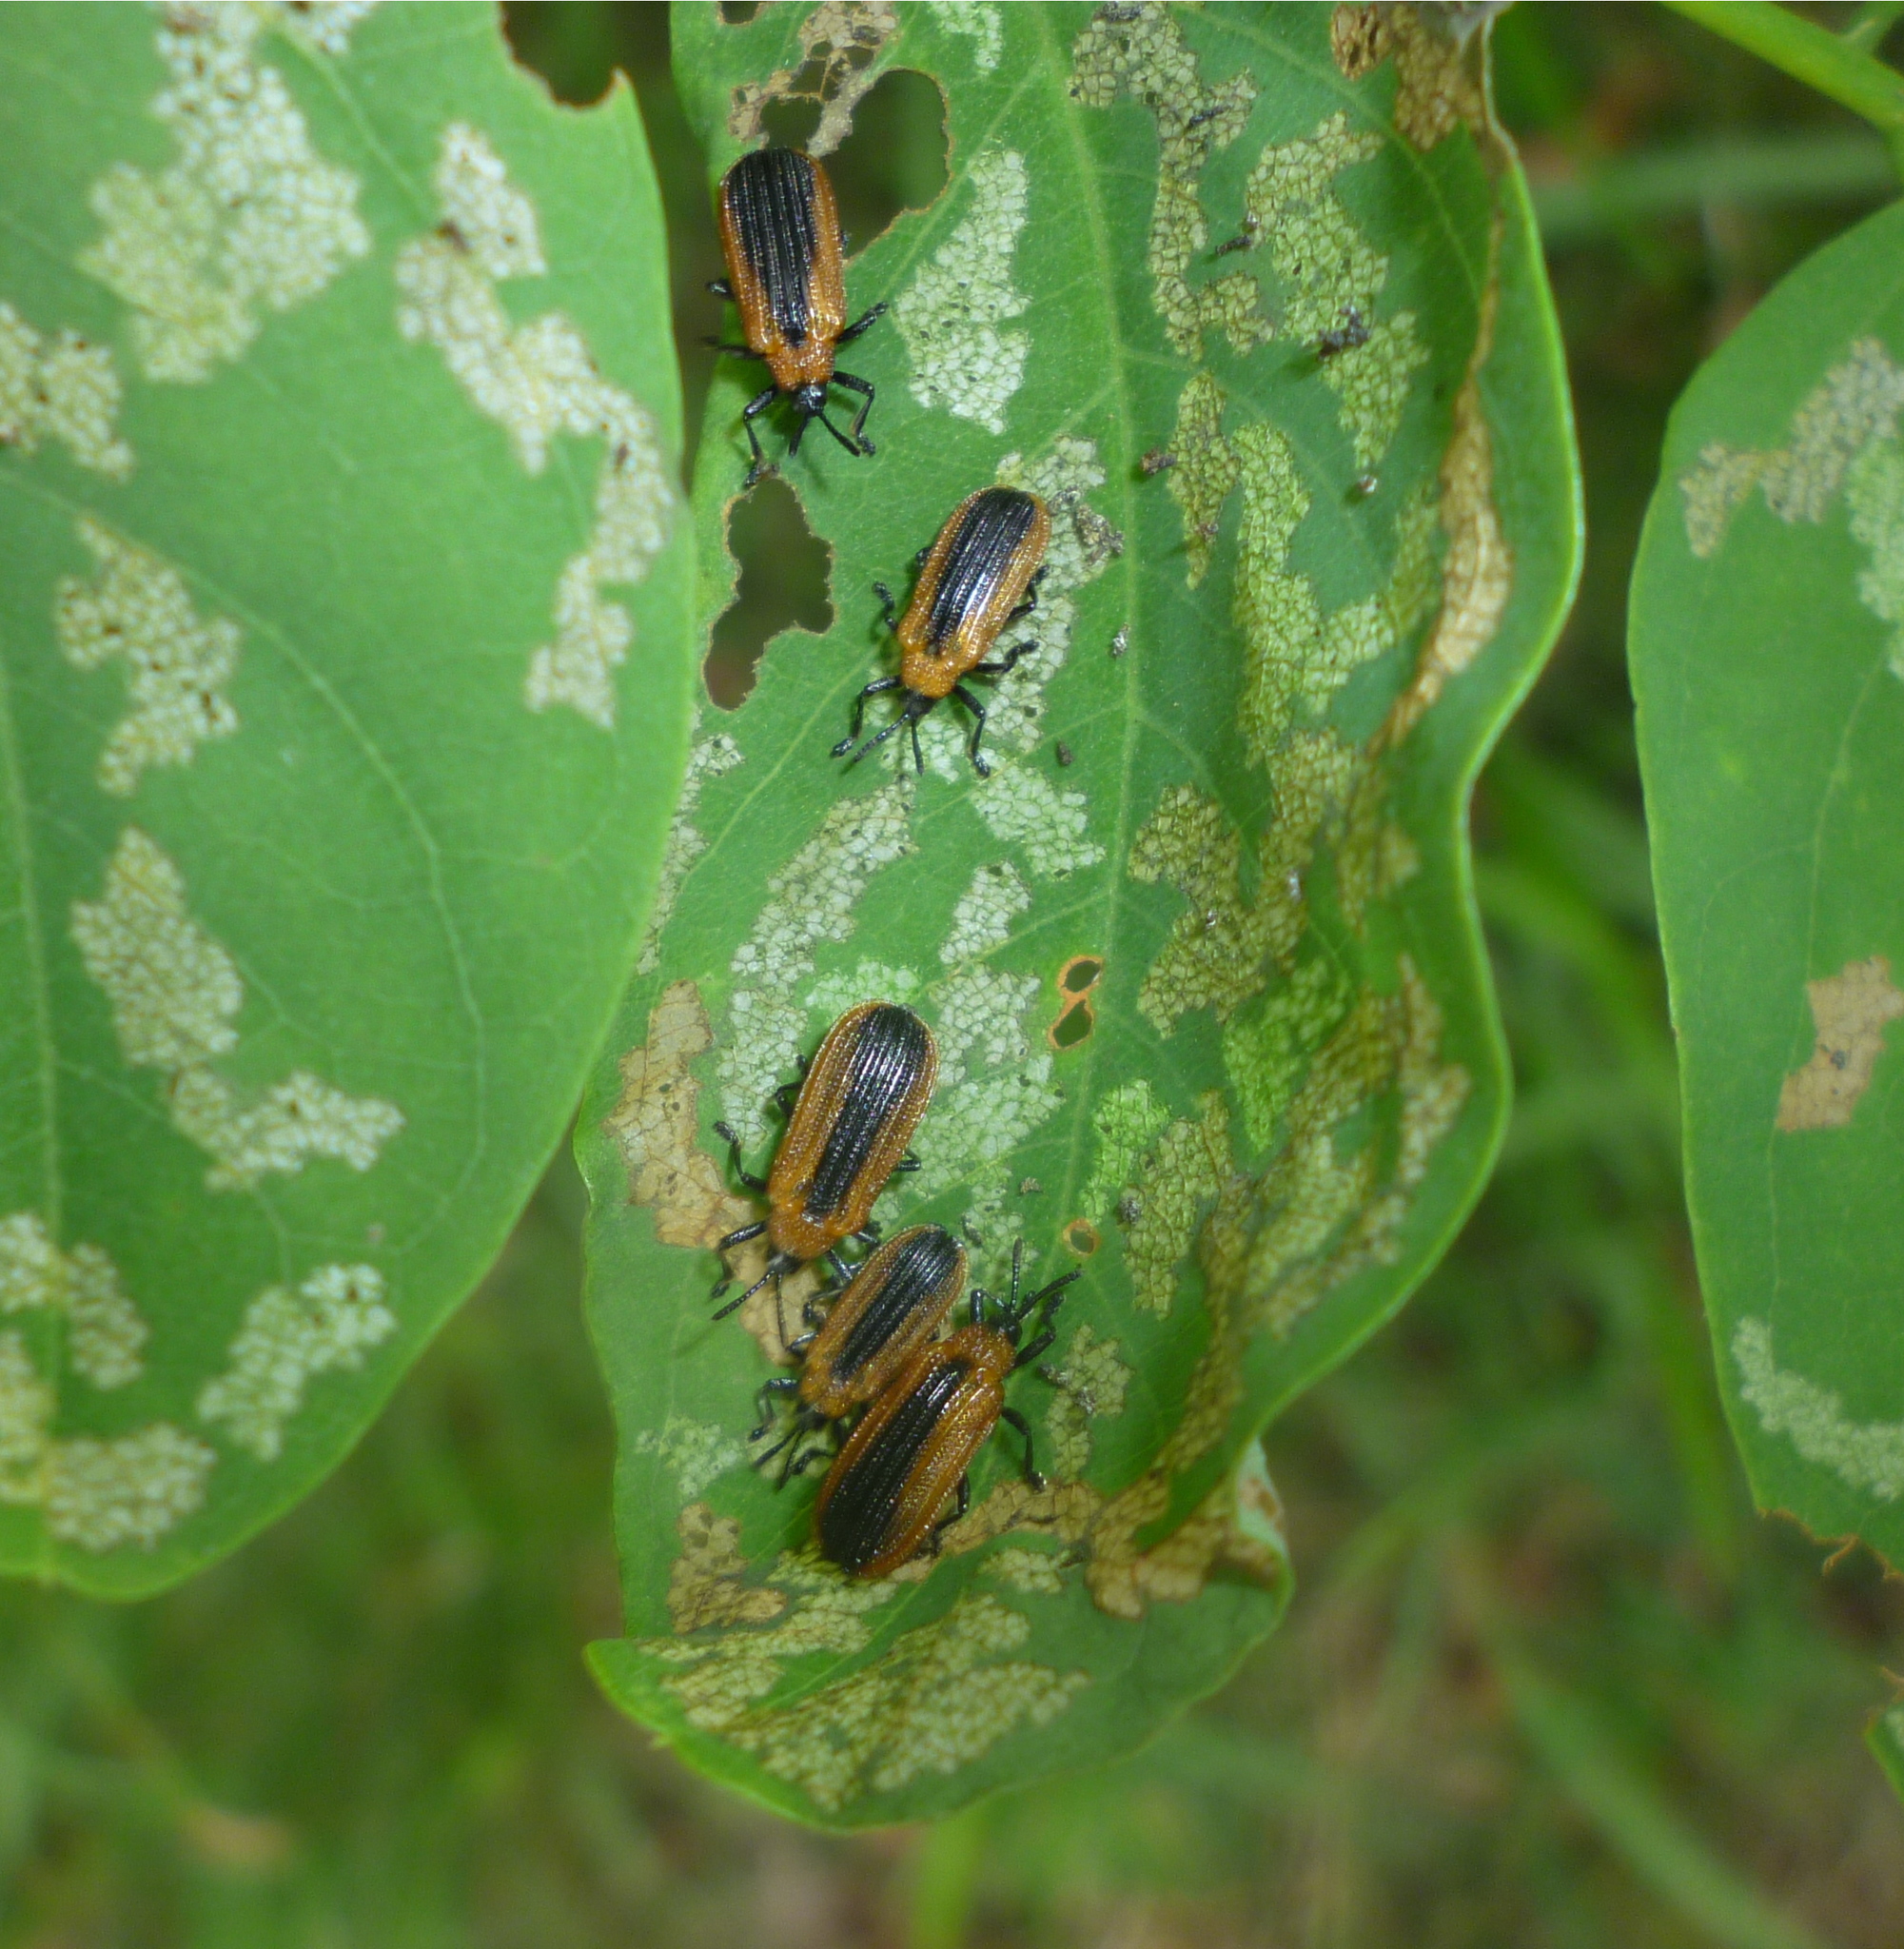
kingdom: Animalia
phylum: Arthropoda
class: Insecta
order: Coleoptera
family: Chrysomelidae
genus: Odontota
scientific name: Odontota dorsalis
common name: Locust leaf-miner beetle
